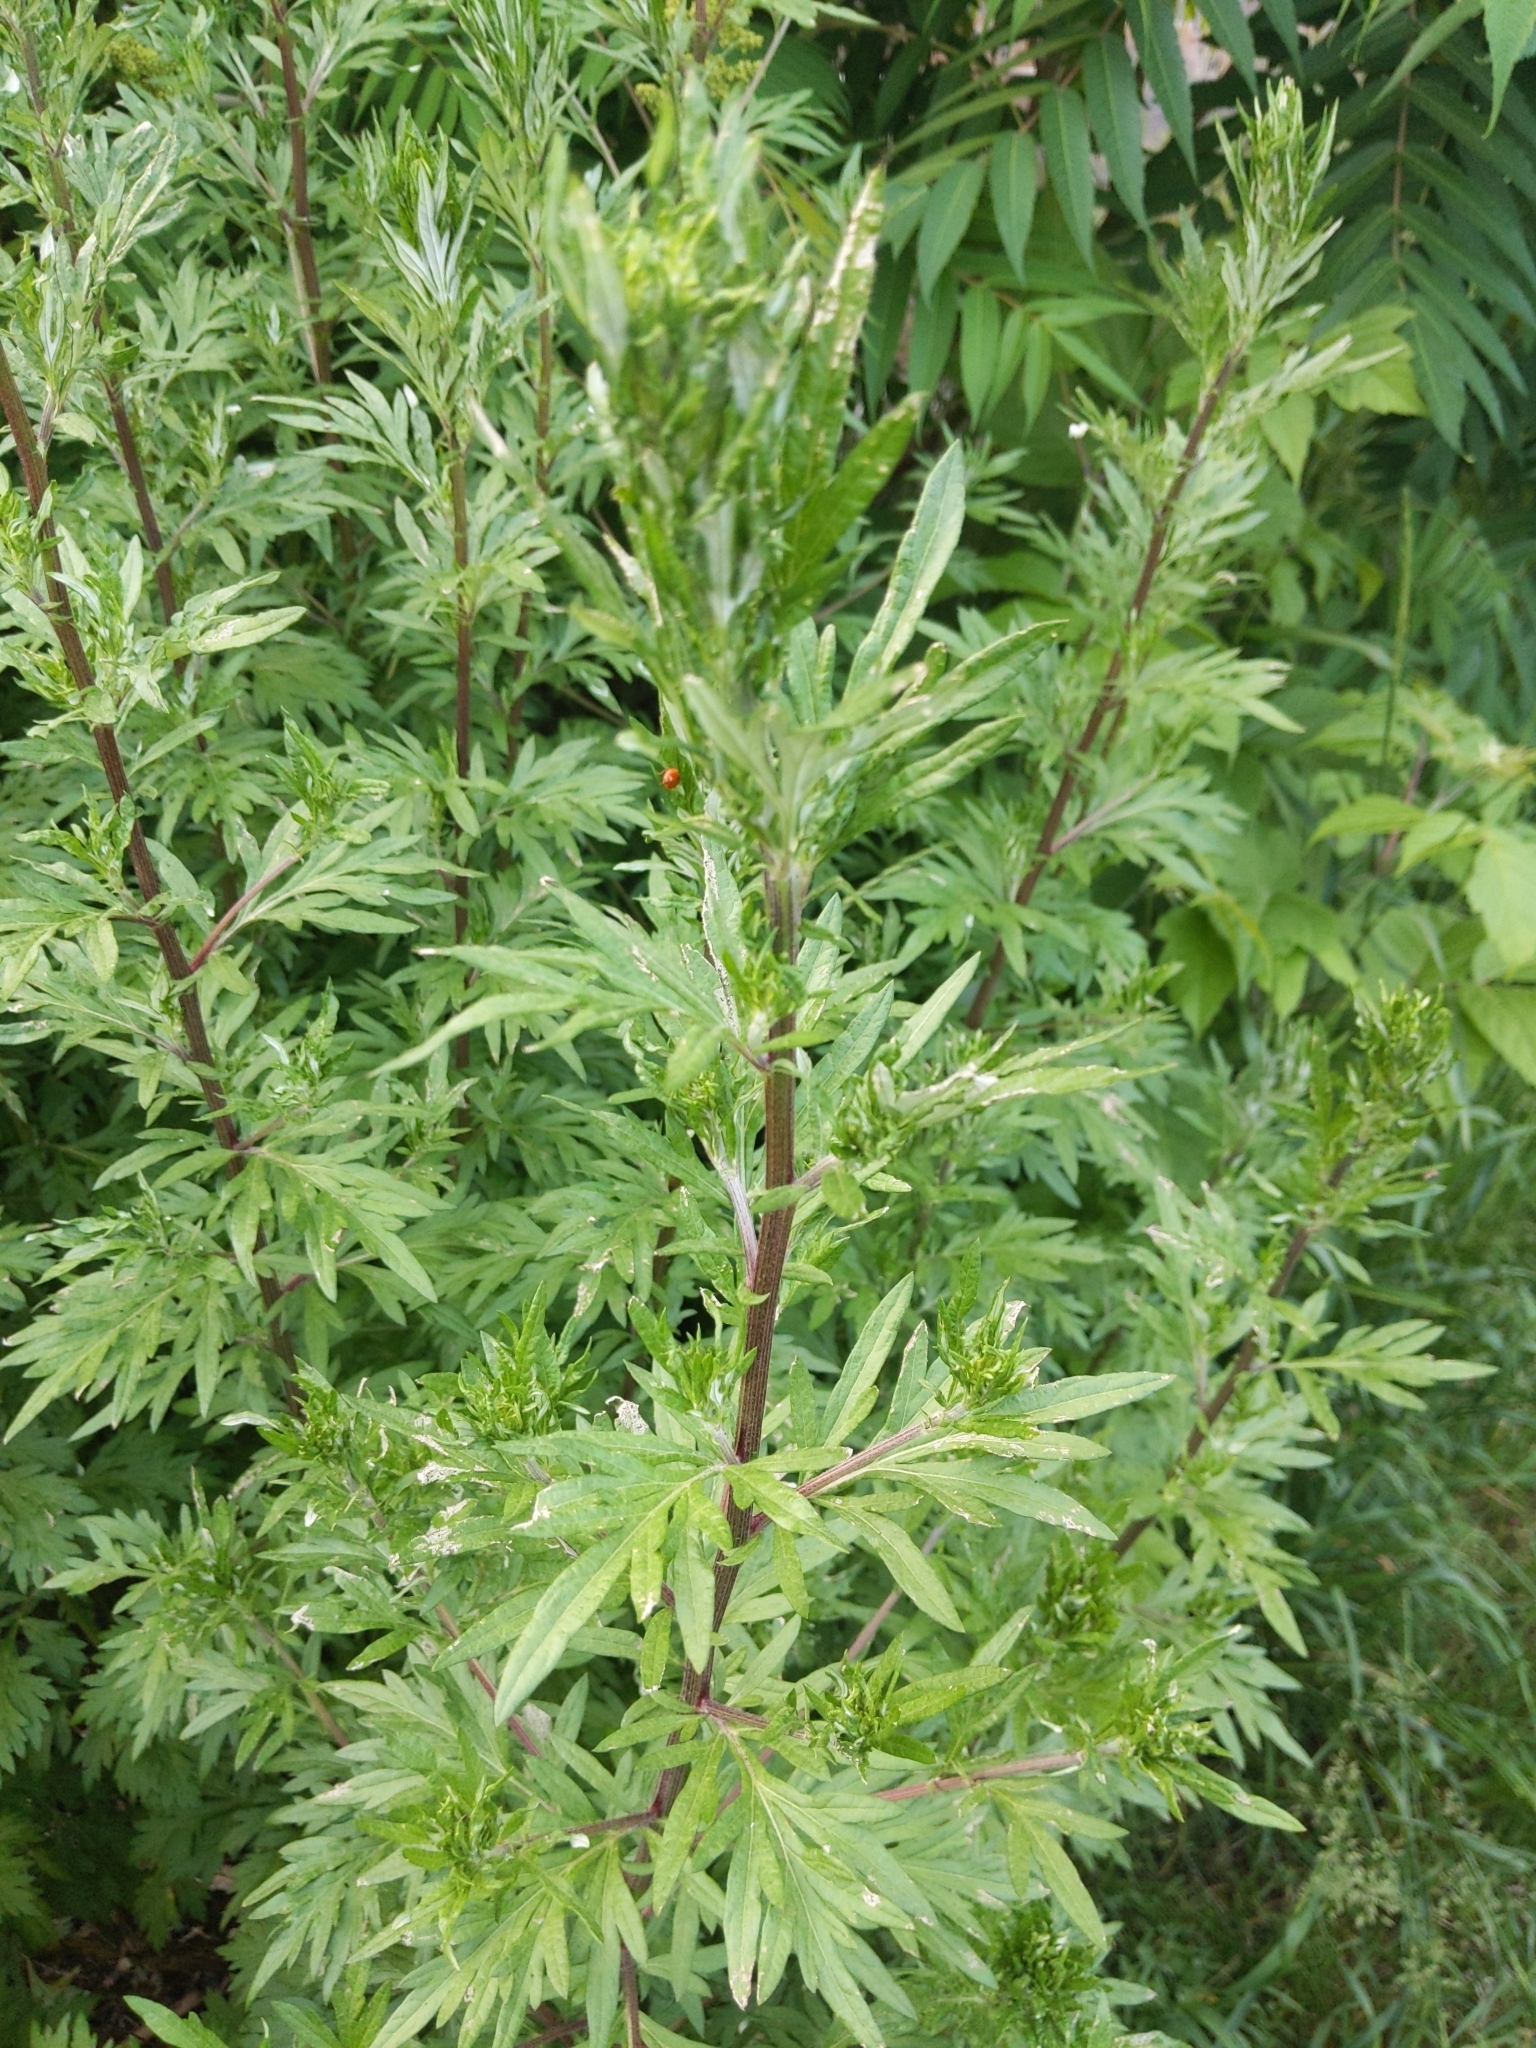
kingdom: Plantae
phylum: Tracheophyta
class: Magnoliopsida
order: Asterales
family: Asteraceae
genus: Artemisia
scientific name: Artemisia vulgaris
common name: Mugwort
